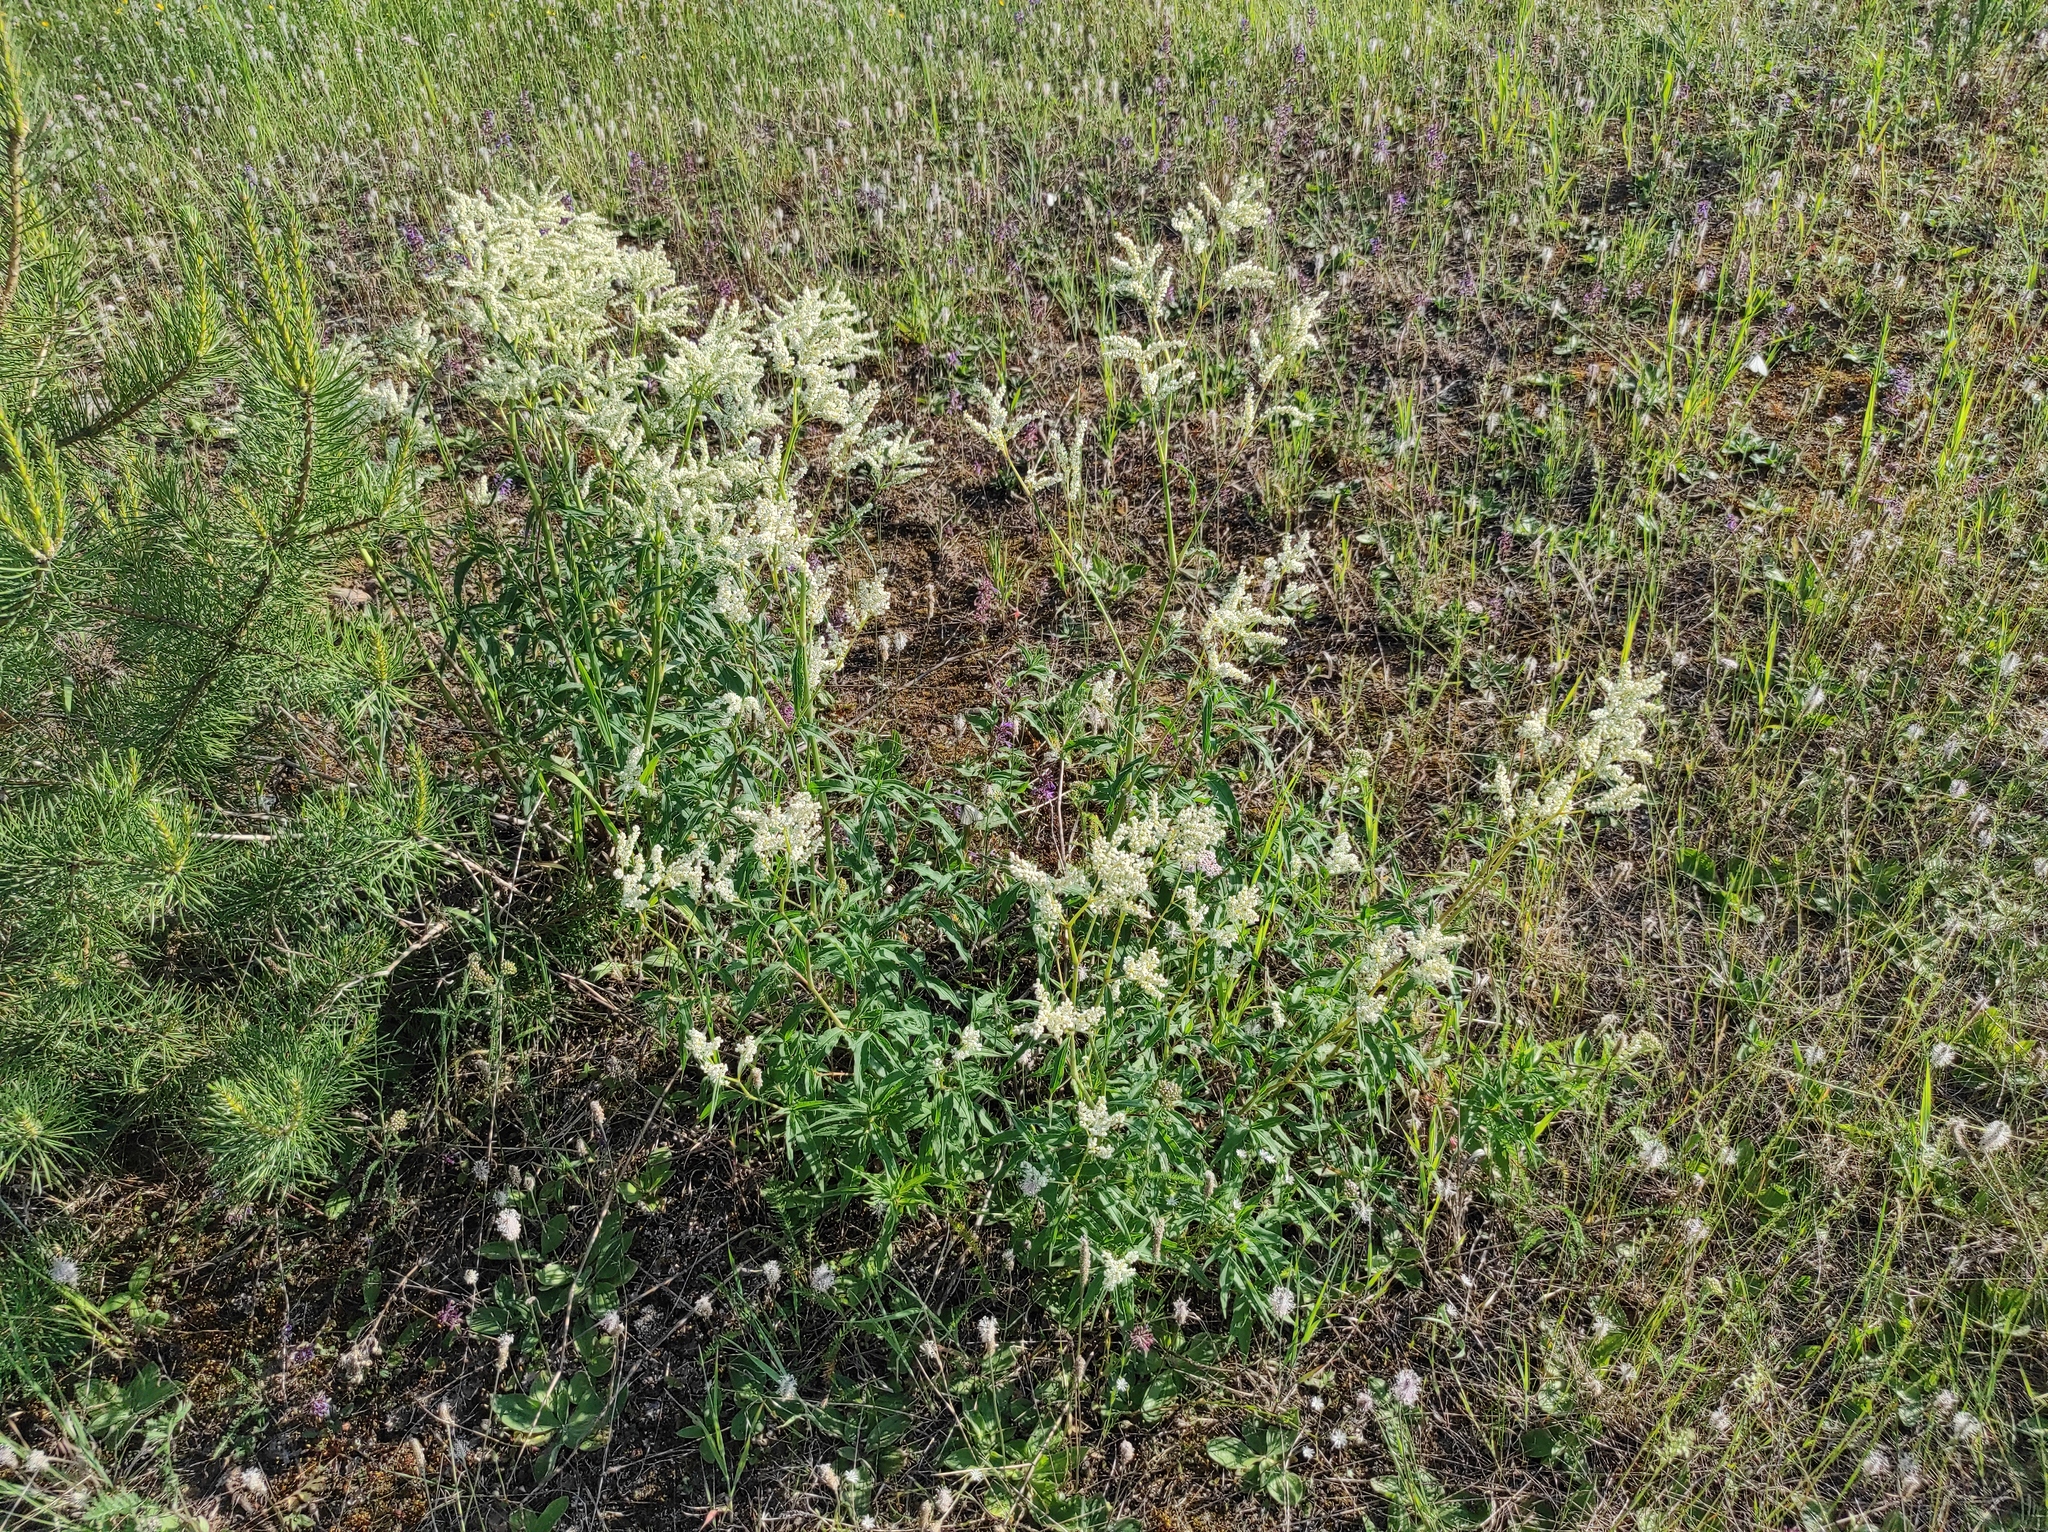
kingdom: Plantae
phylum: Tracheophyta
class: Magnoliopsida
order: Caryophyllales
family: Polygonaceae
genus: Koenigia
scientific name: Koenigia alpina
